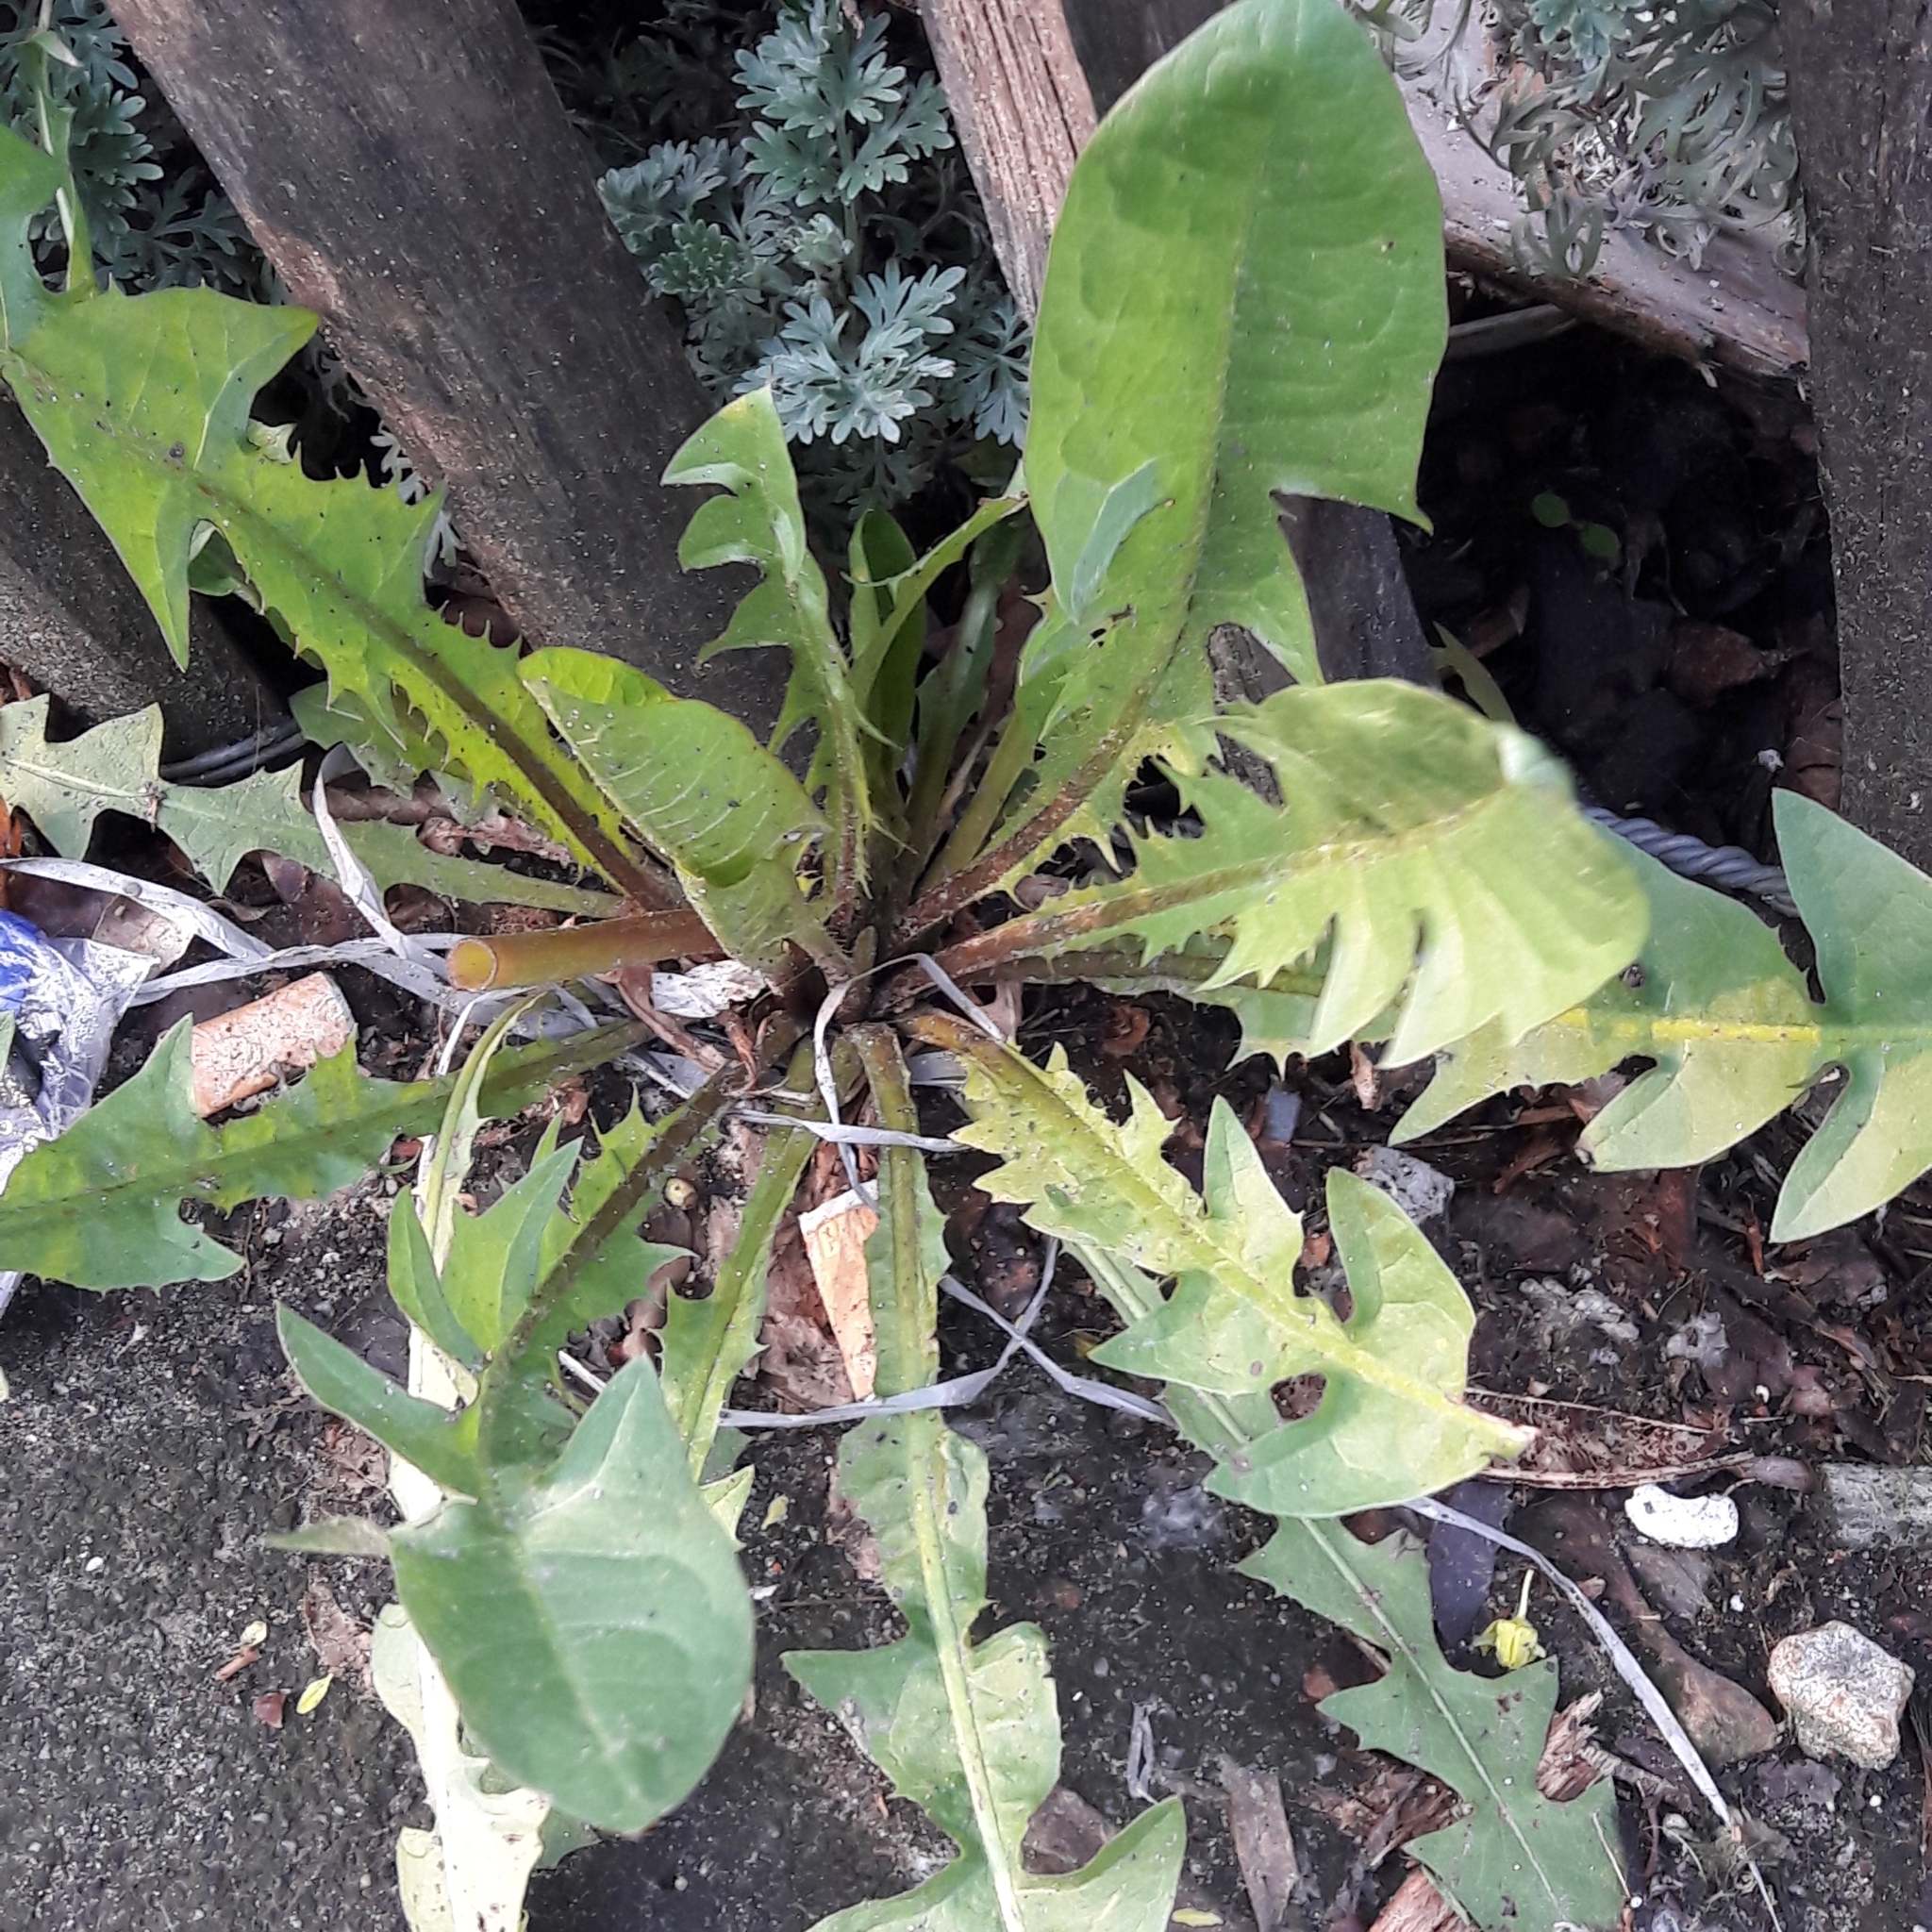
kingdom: Plantae
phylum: Tracheophyta
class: Magnoliopsida
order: Asterales
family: Asteraceae
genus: Taraxacum
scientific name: Taraxacum officinale
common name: Common dandelion
